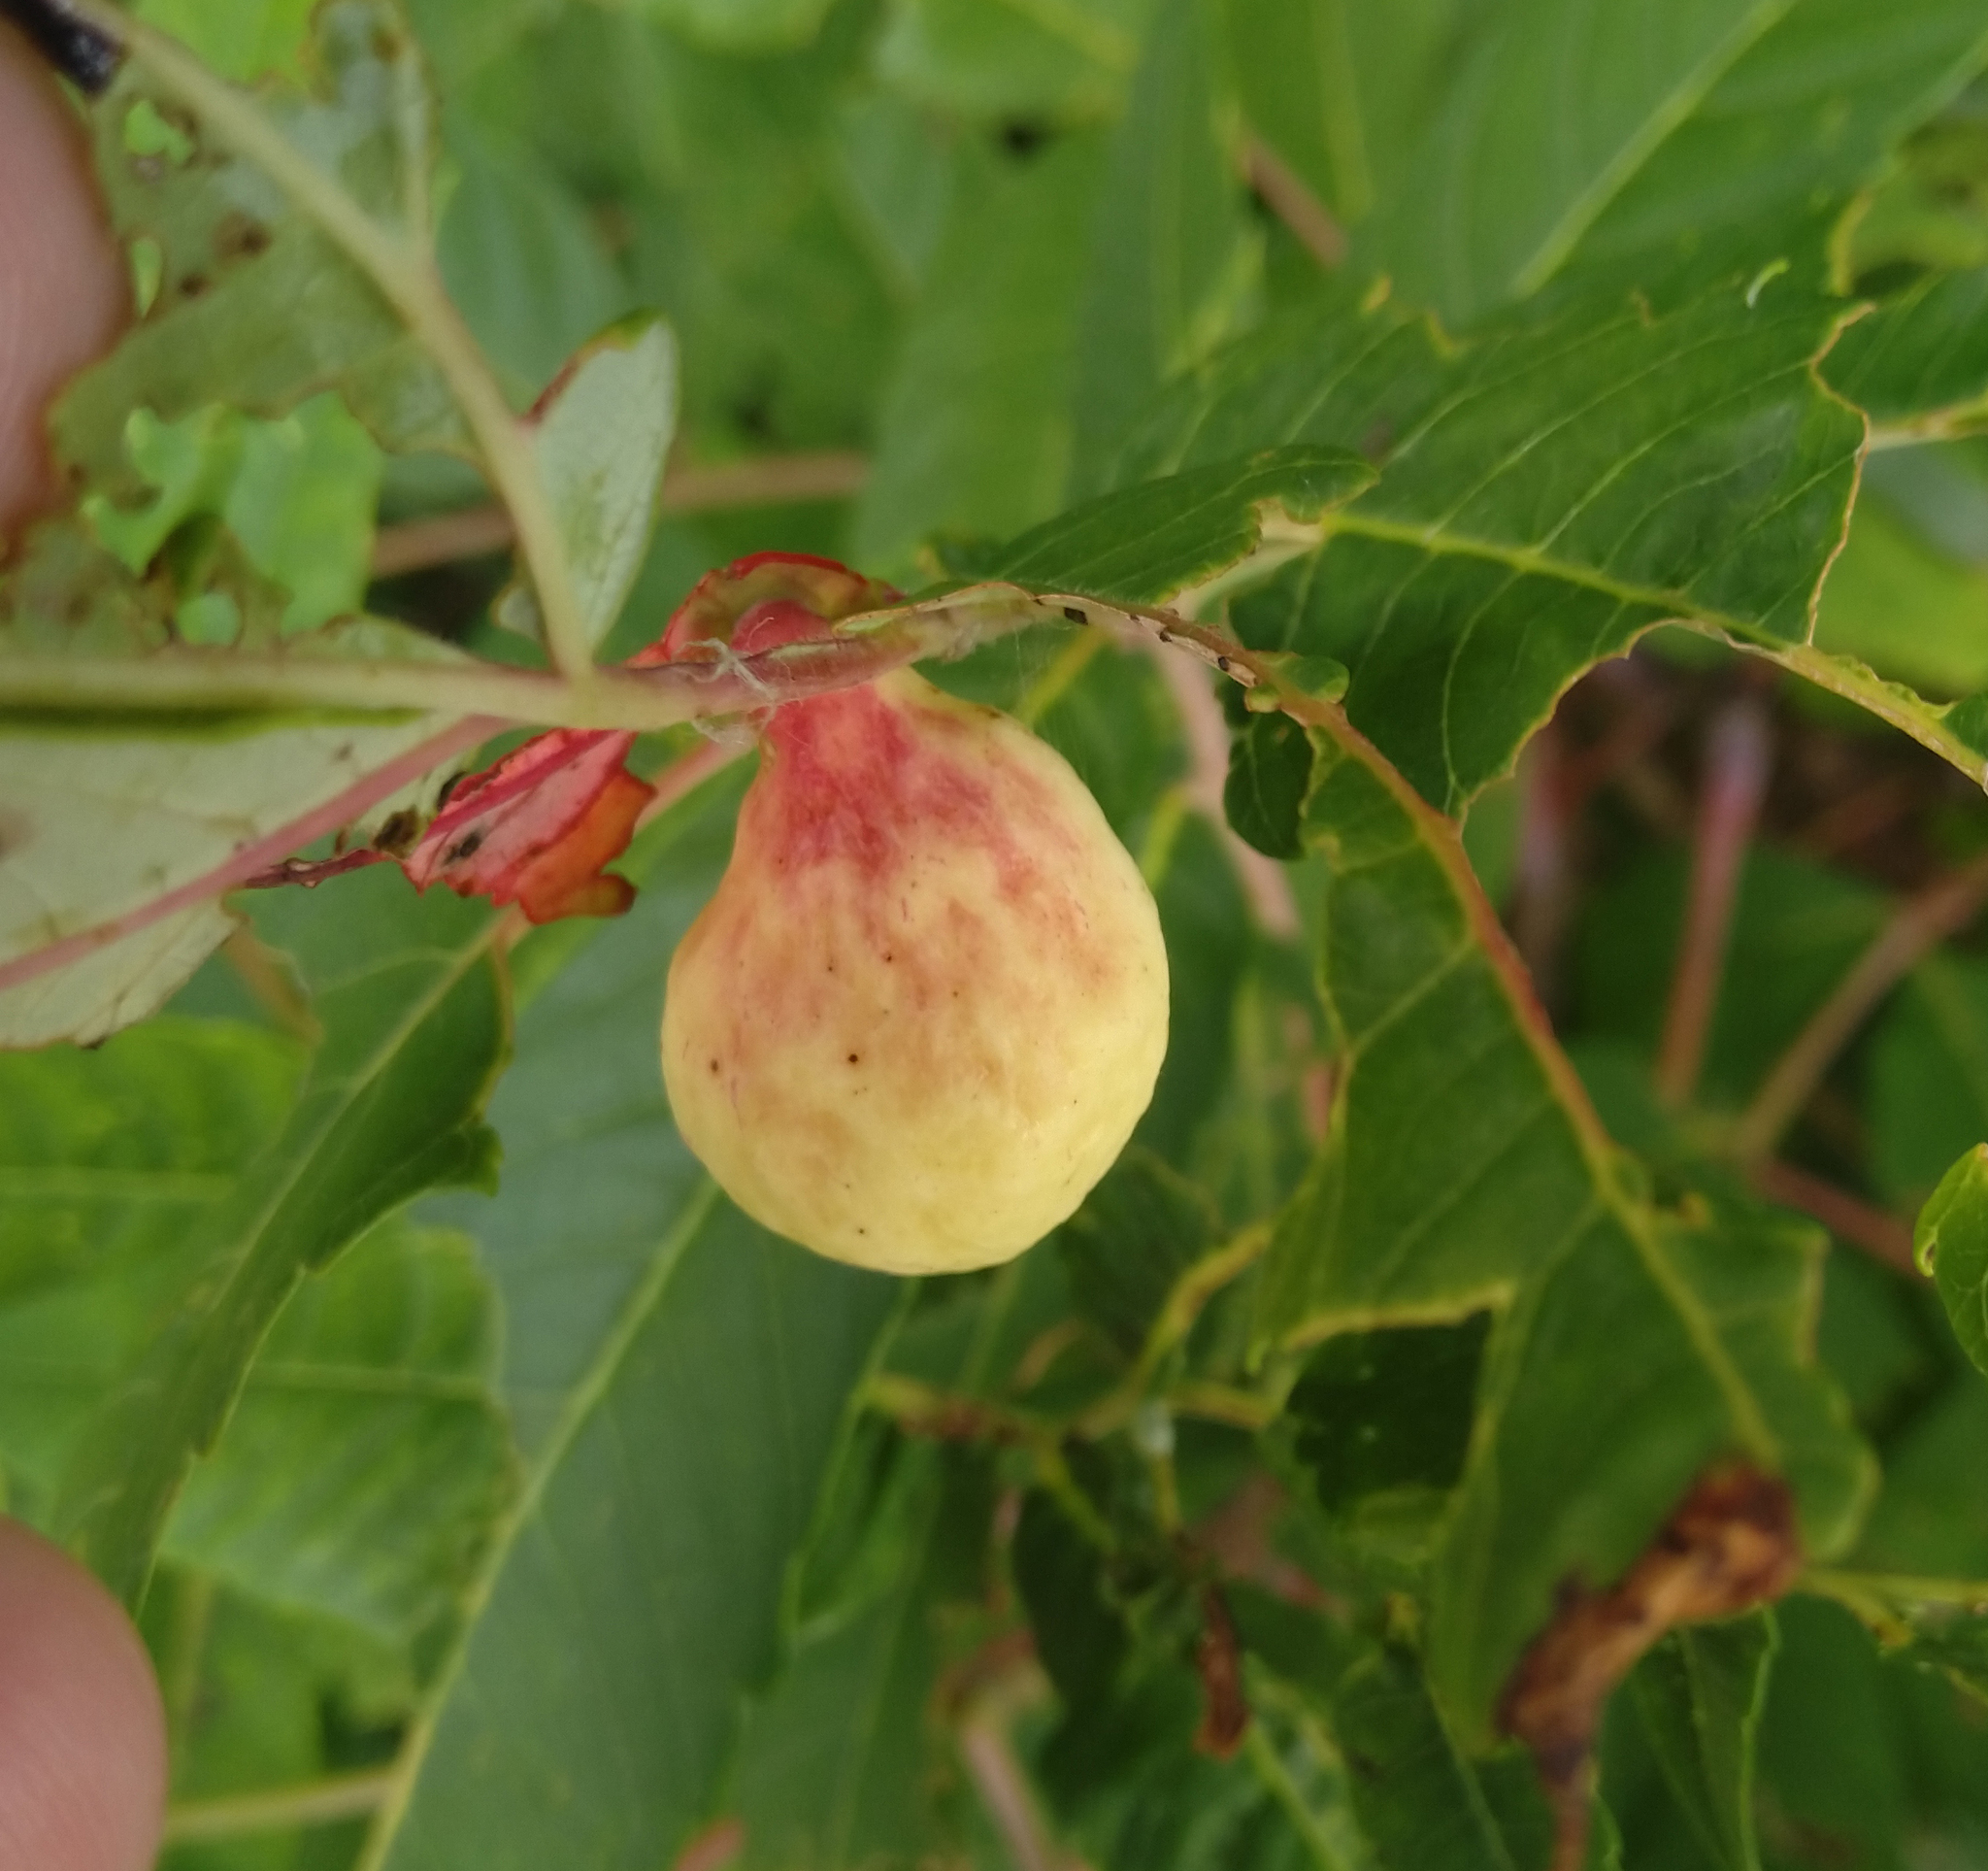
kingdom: Animalia
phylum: Arthropoda
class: Insecta
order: Hemiptera
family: Aphididae
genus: Melaphis
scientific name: Melaphis rhois
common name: Sumac gall aphid
